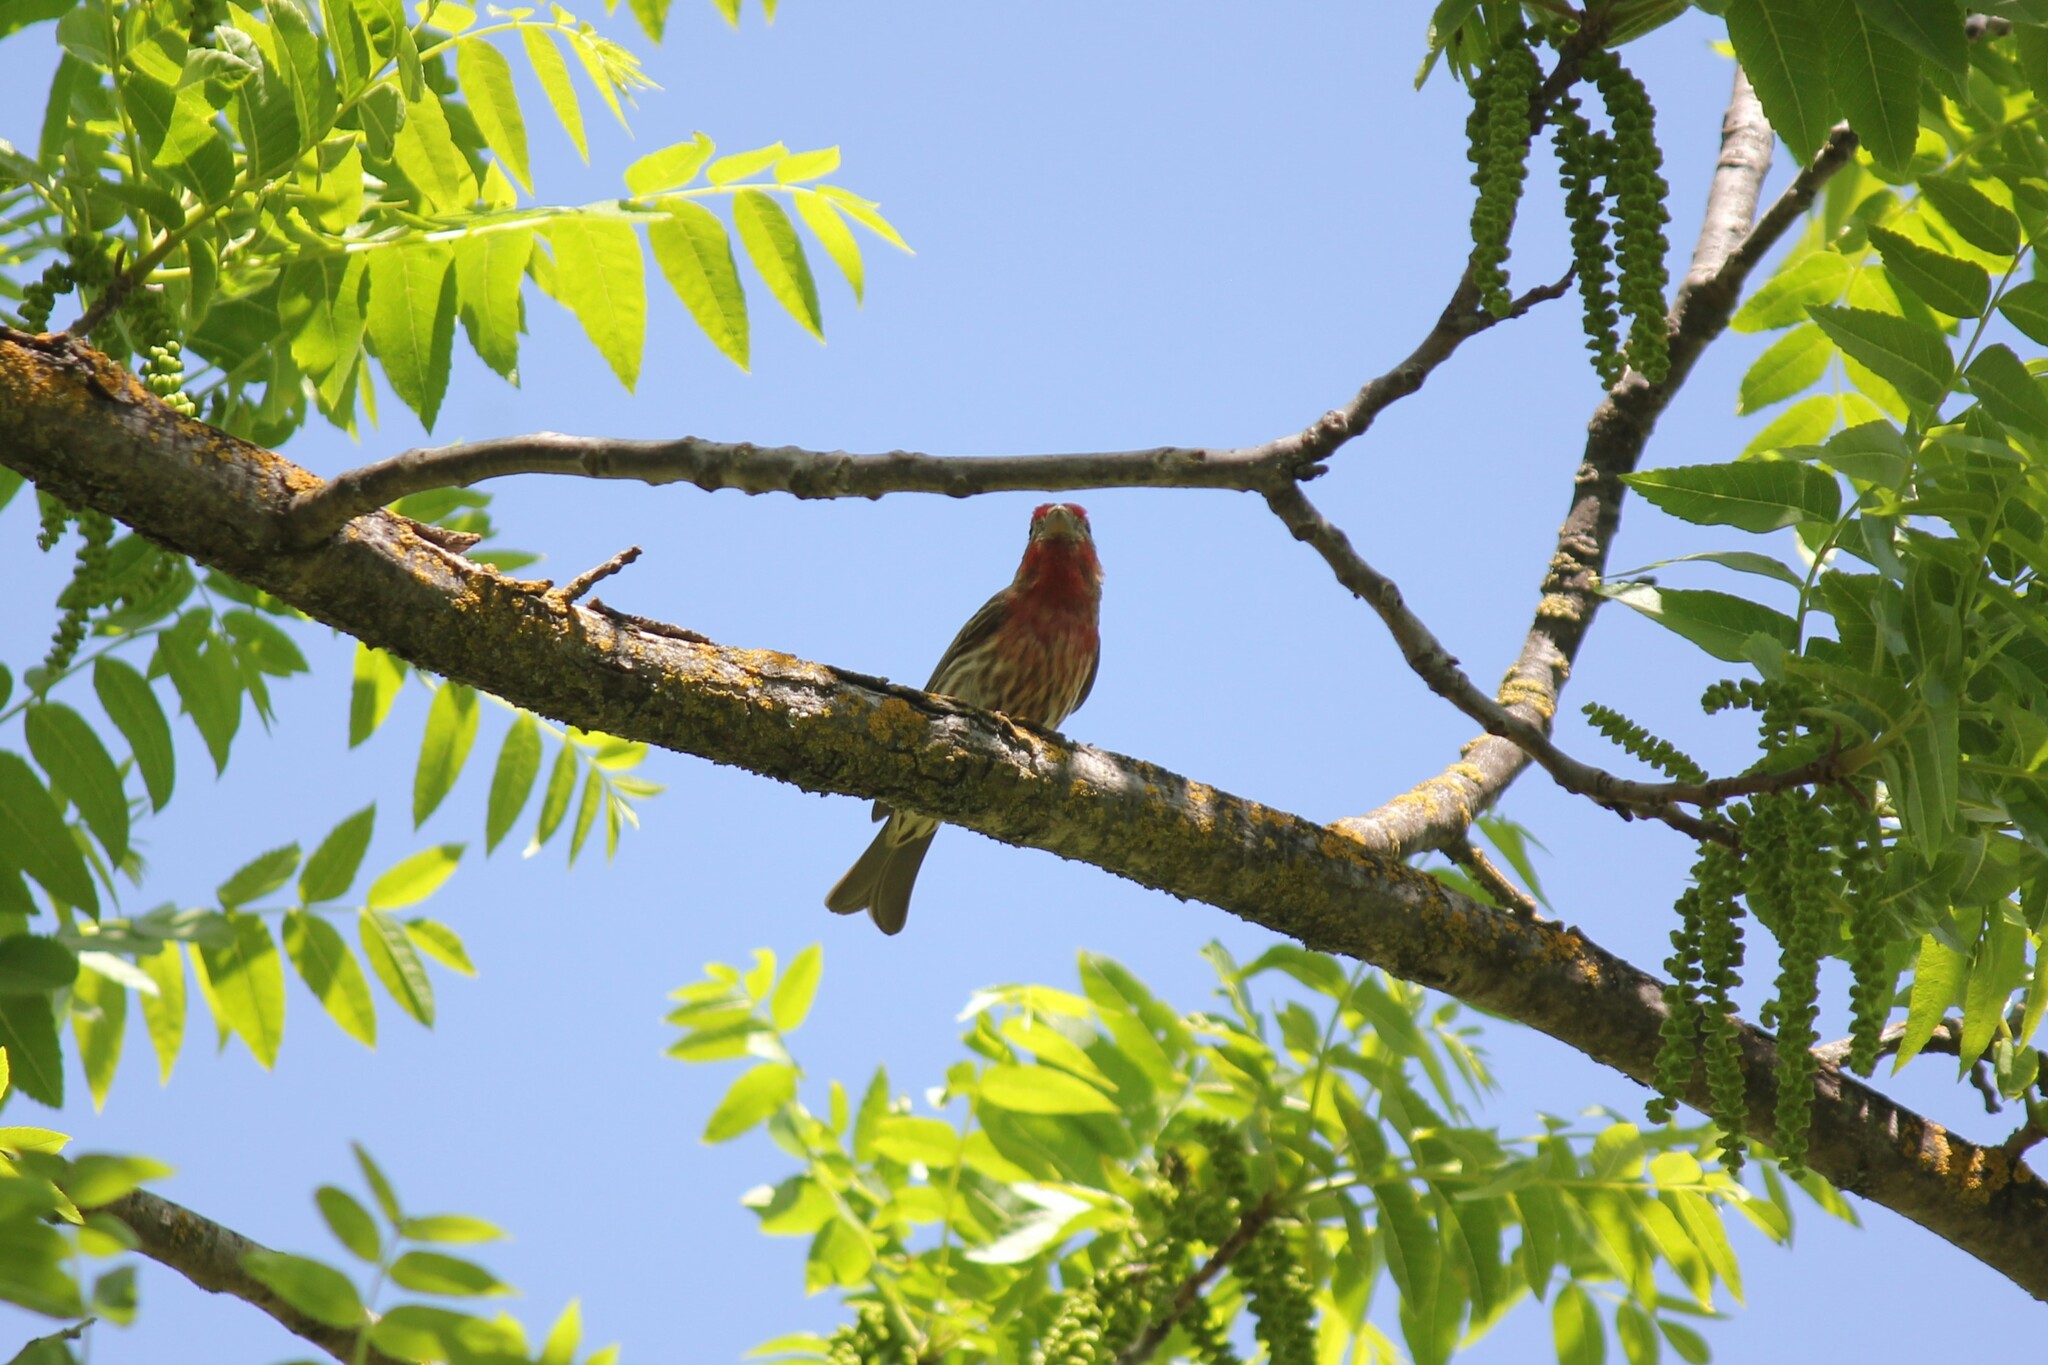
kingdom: Animalia
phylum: Chordata
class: Aves
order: Passeriformes
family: Fringillidae
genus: Haemorhous
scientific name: Haemorhous mexicanus
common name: House finch
